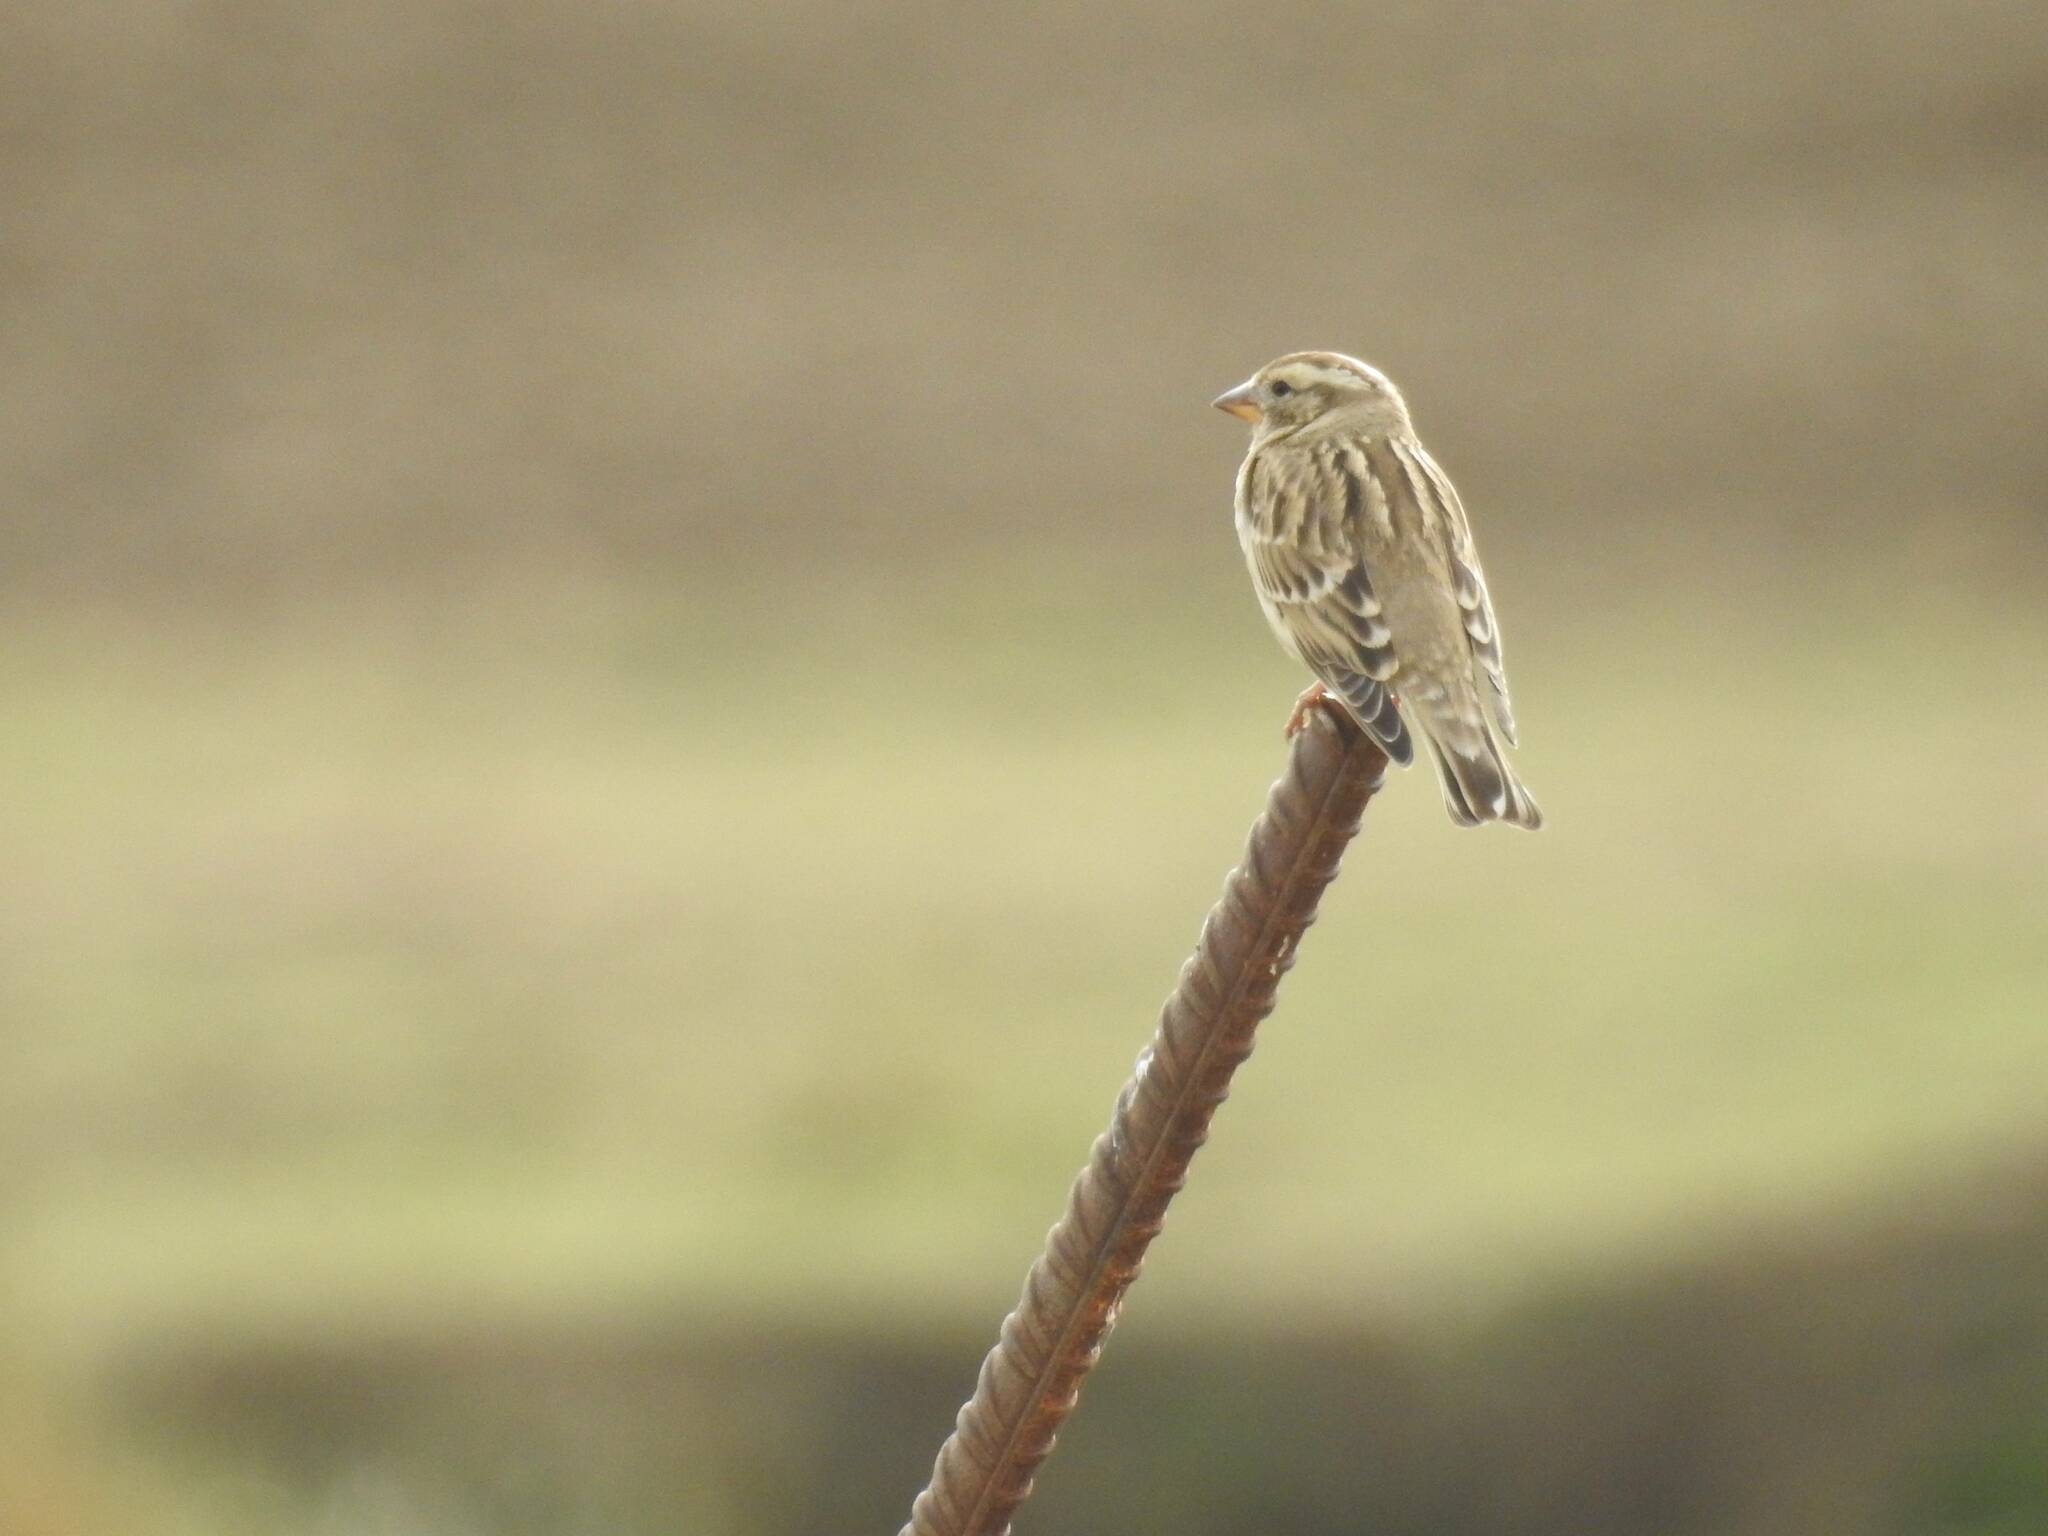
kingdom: Animalia
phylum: Chordata
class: Aves
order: Passeriformes
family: Passeridae
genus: Petronia
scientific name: Petronia petronia
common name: Rock sparrow
